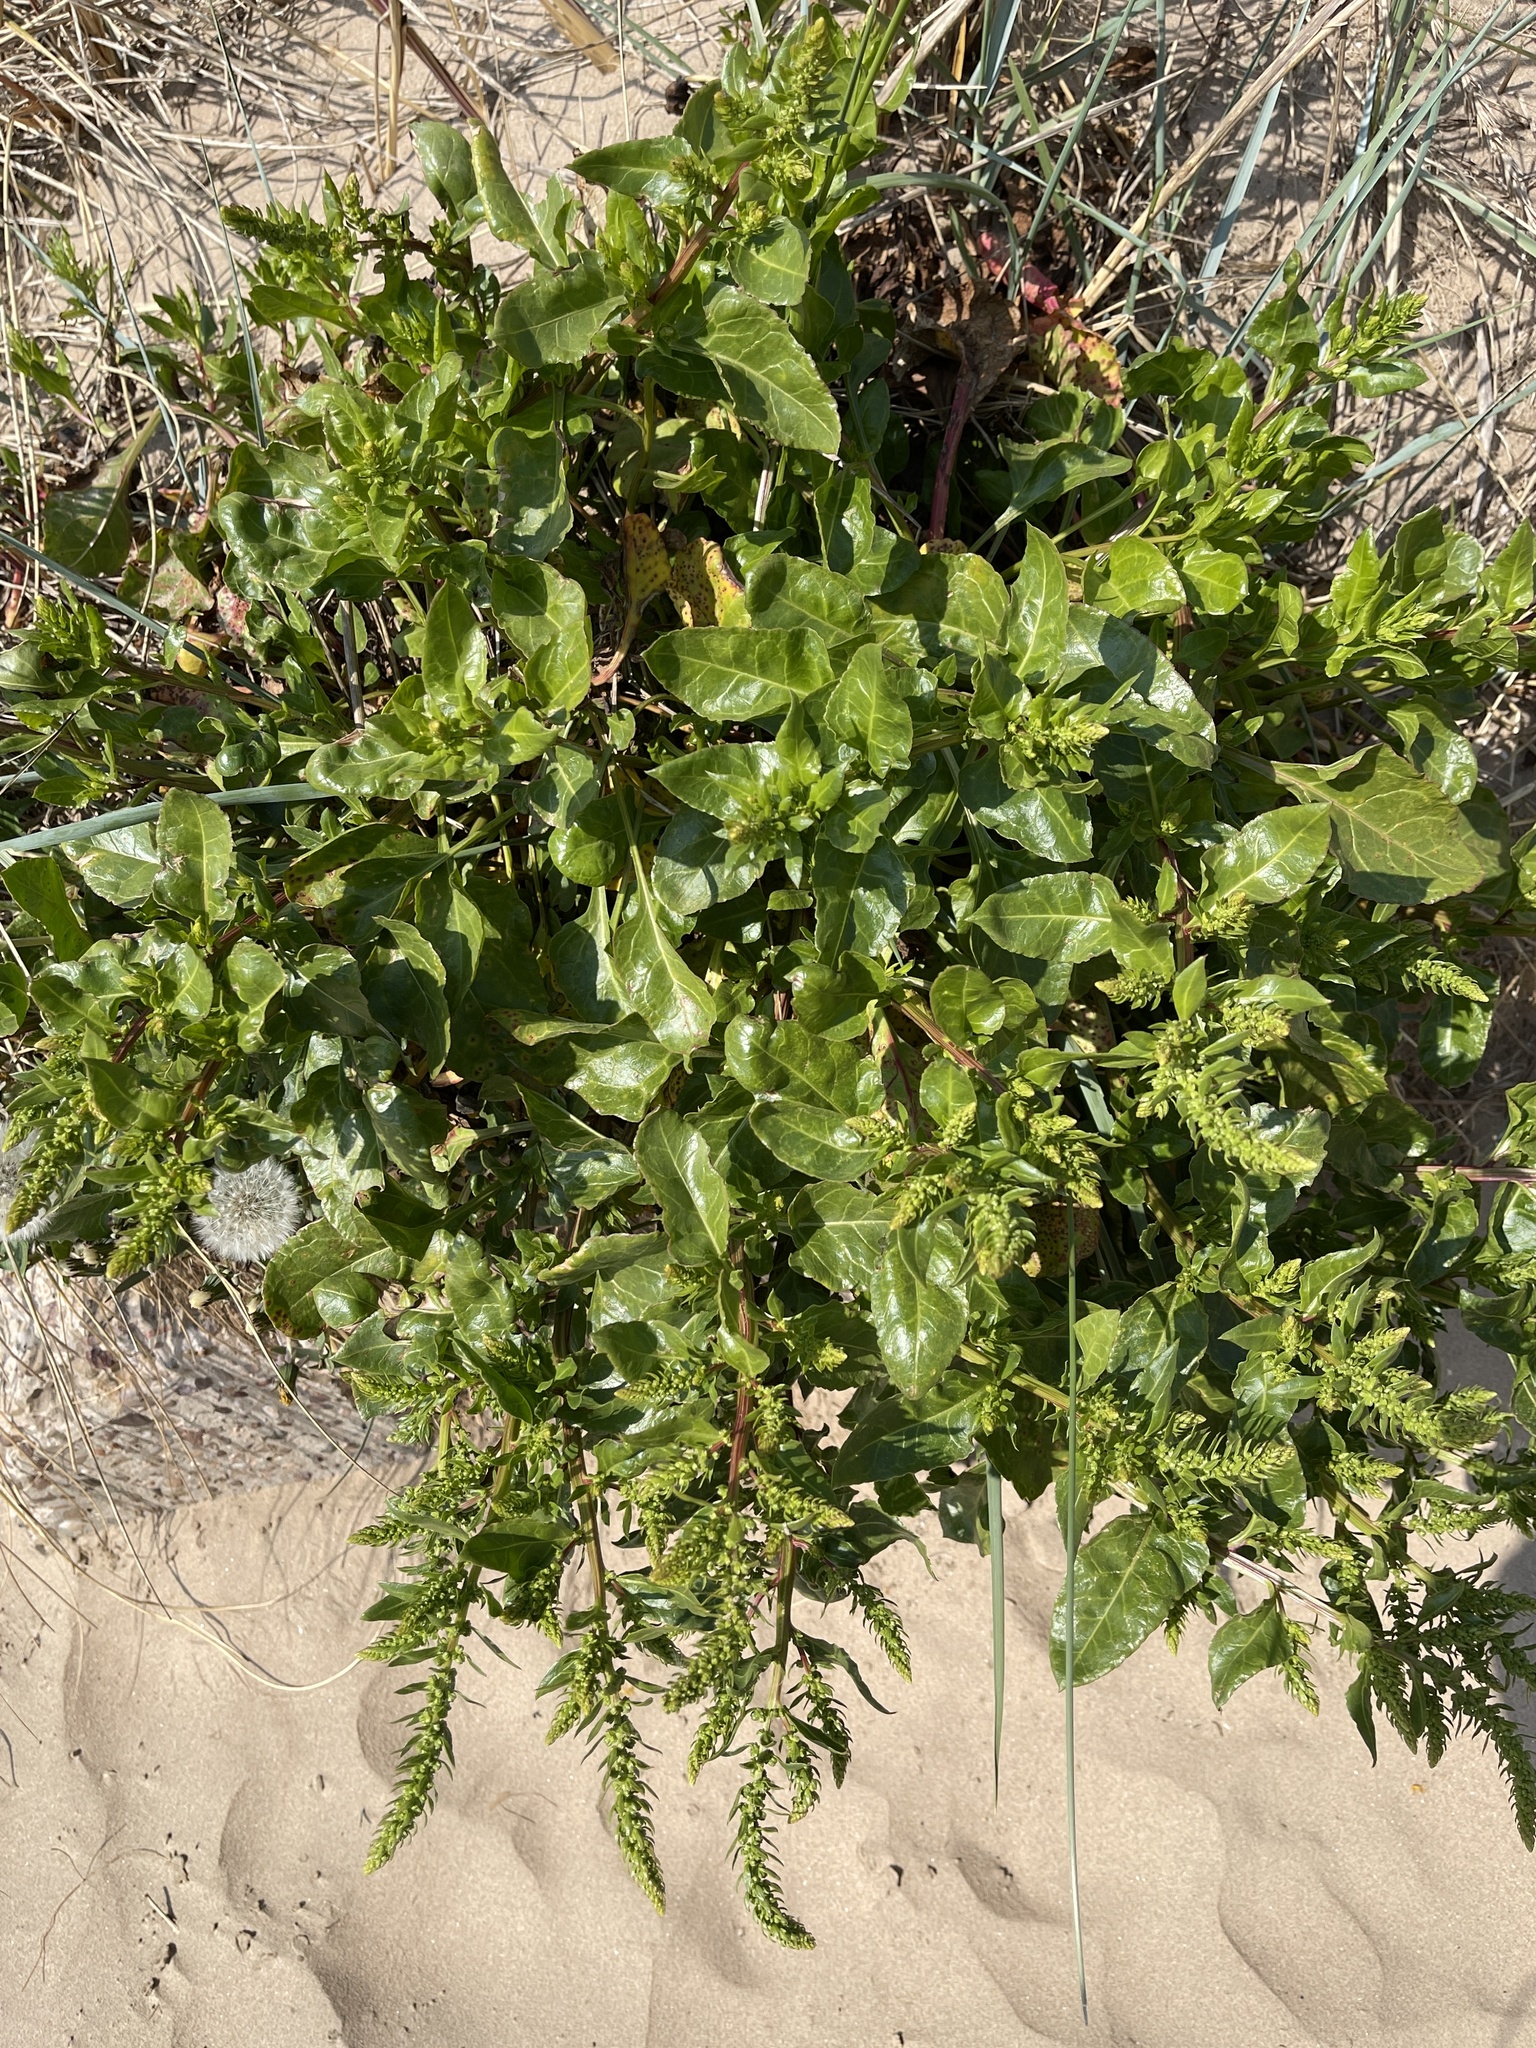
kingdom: Plantae
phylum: Tracheophyta
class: Magnoliopsida
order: Caryophyllales
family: Amaranthaceae
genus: Beta
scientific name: Beta vulgaris
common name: Beet
